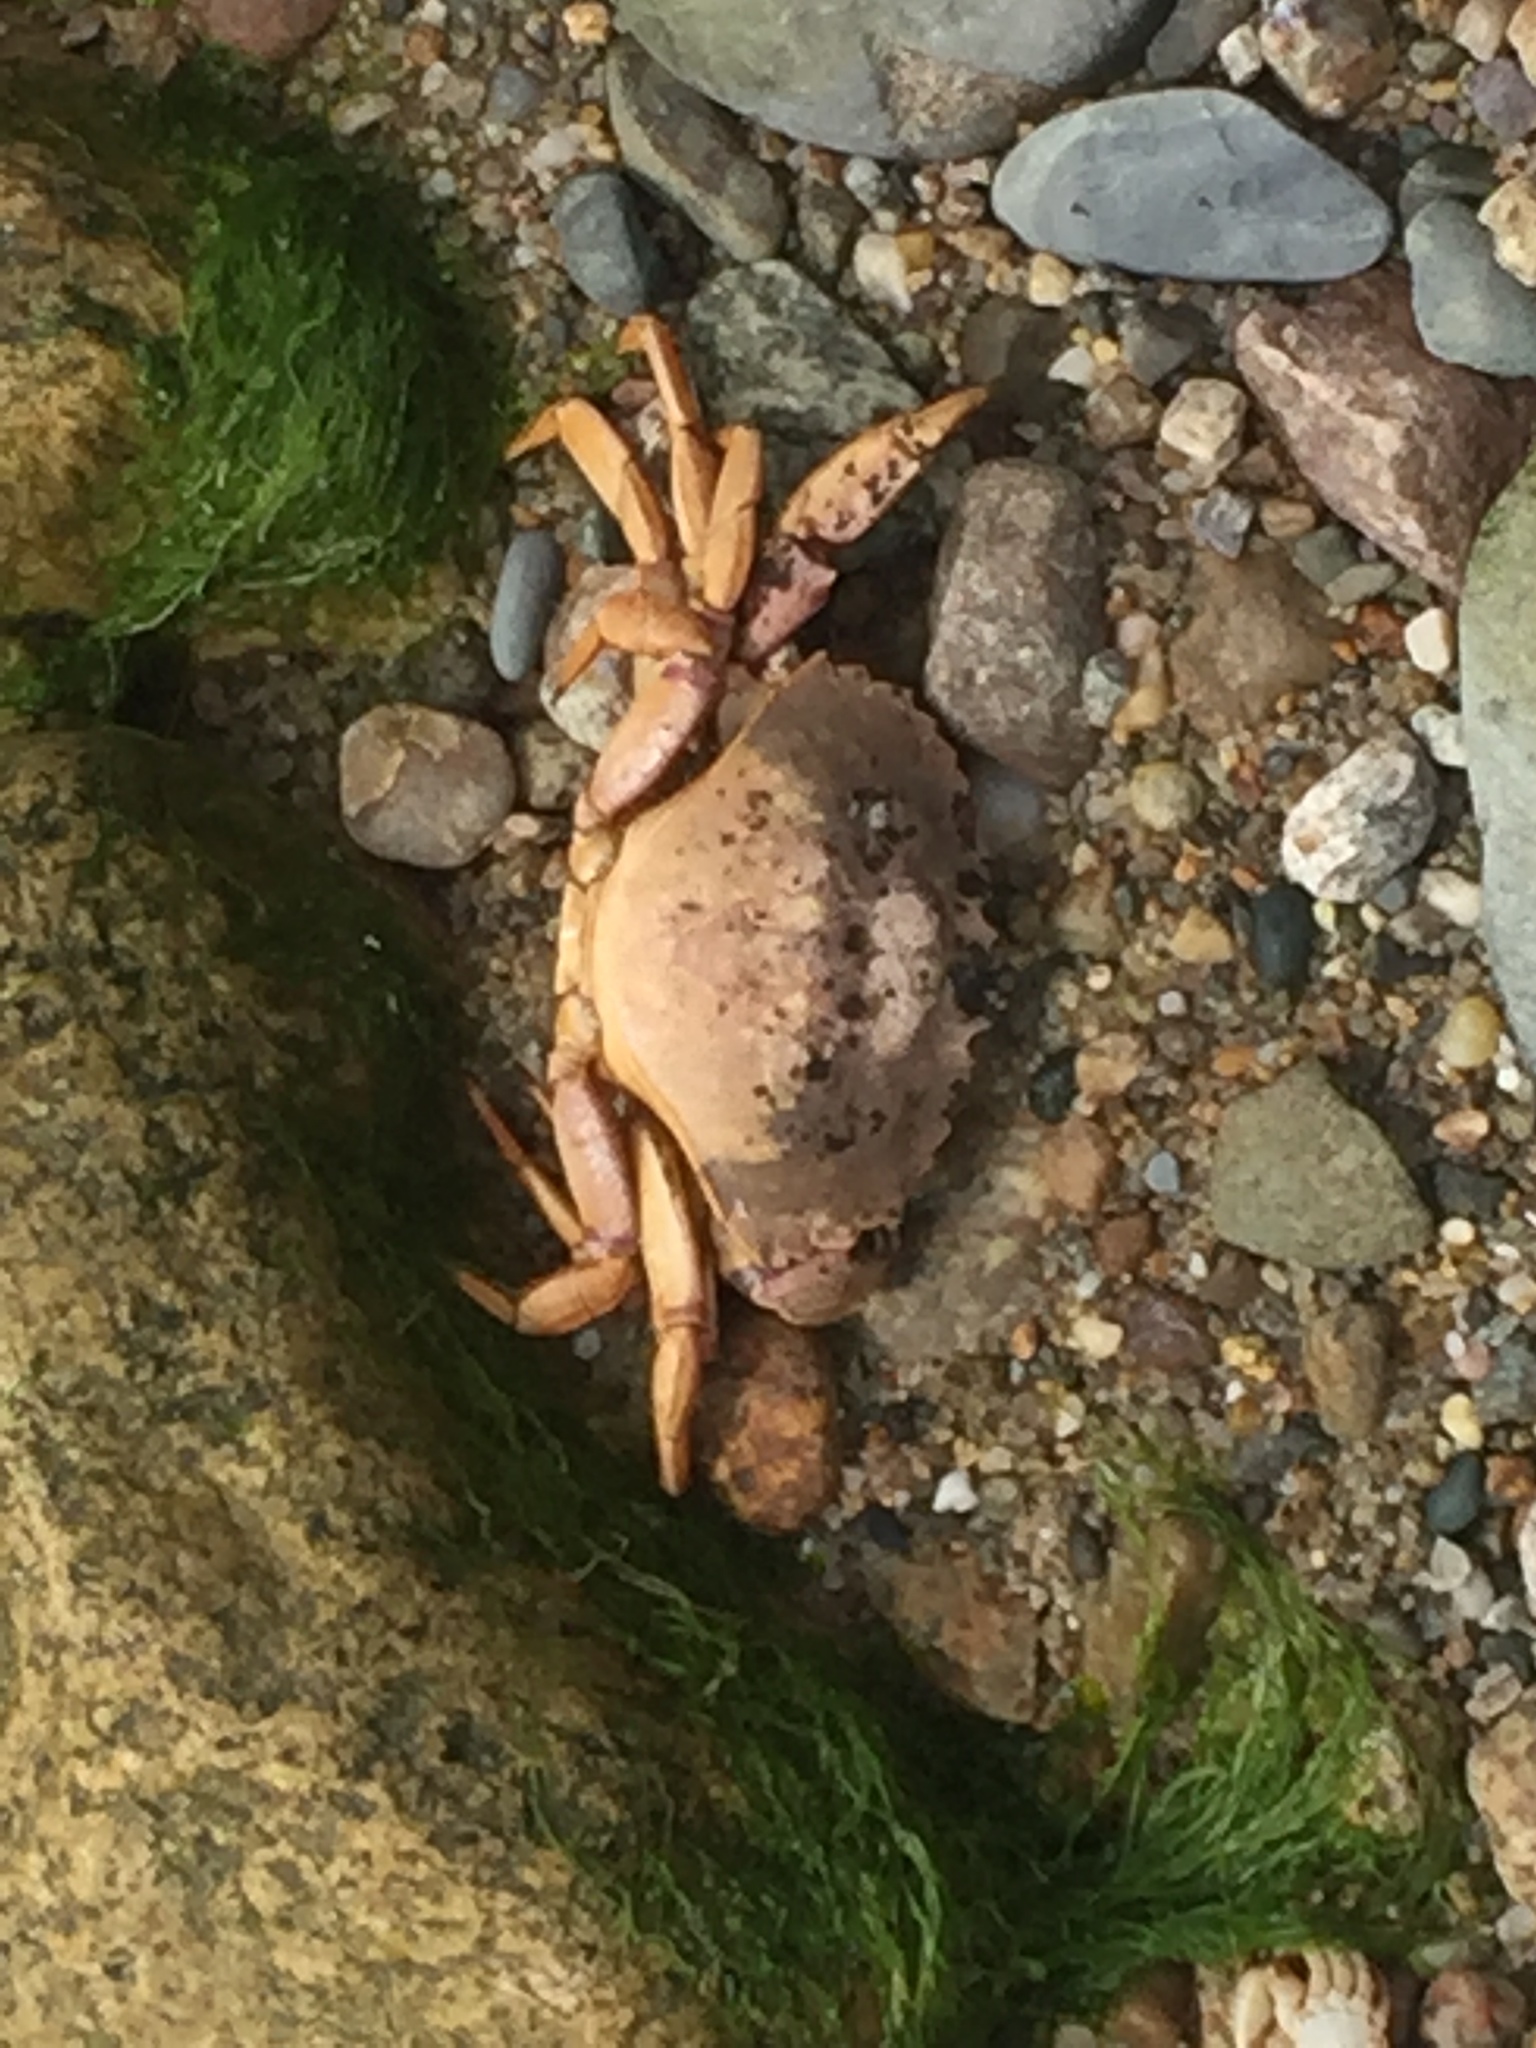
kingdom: Animalia
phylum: Arthropoda
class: Malacostraca
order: Decapoda
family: Cancridae
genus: Cancer
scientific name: Cancer irroratus
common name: Atlantic rock crab
